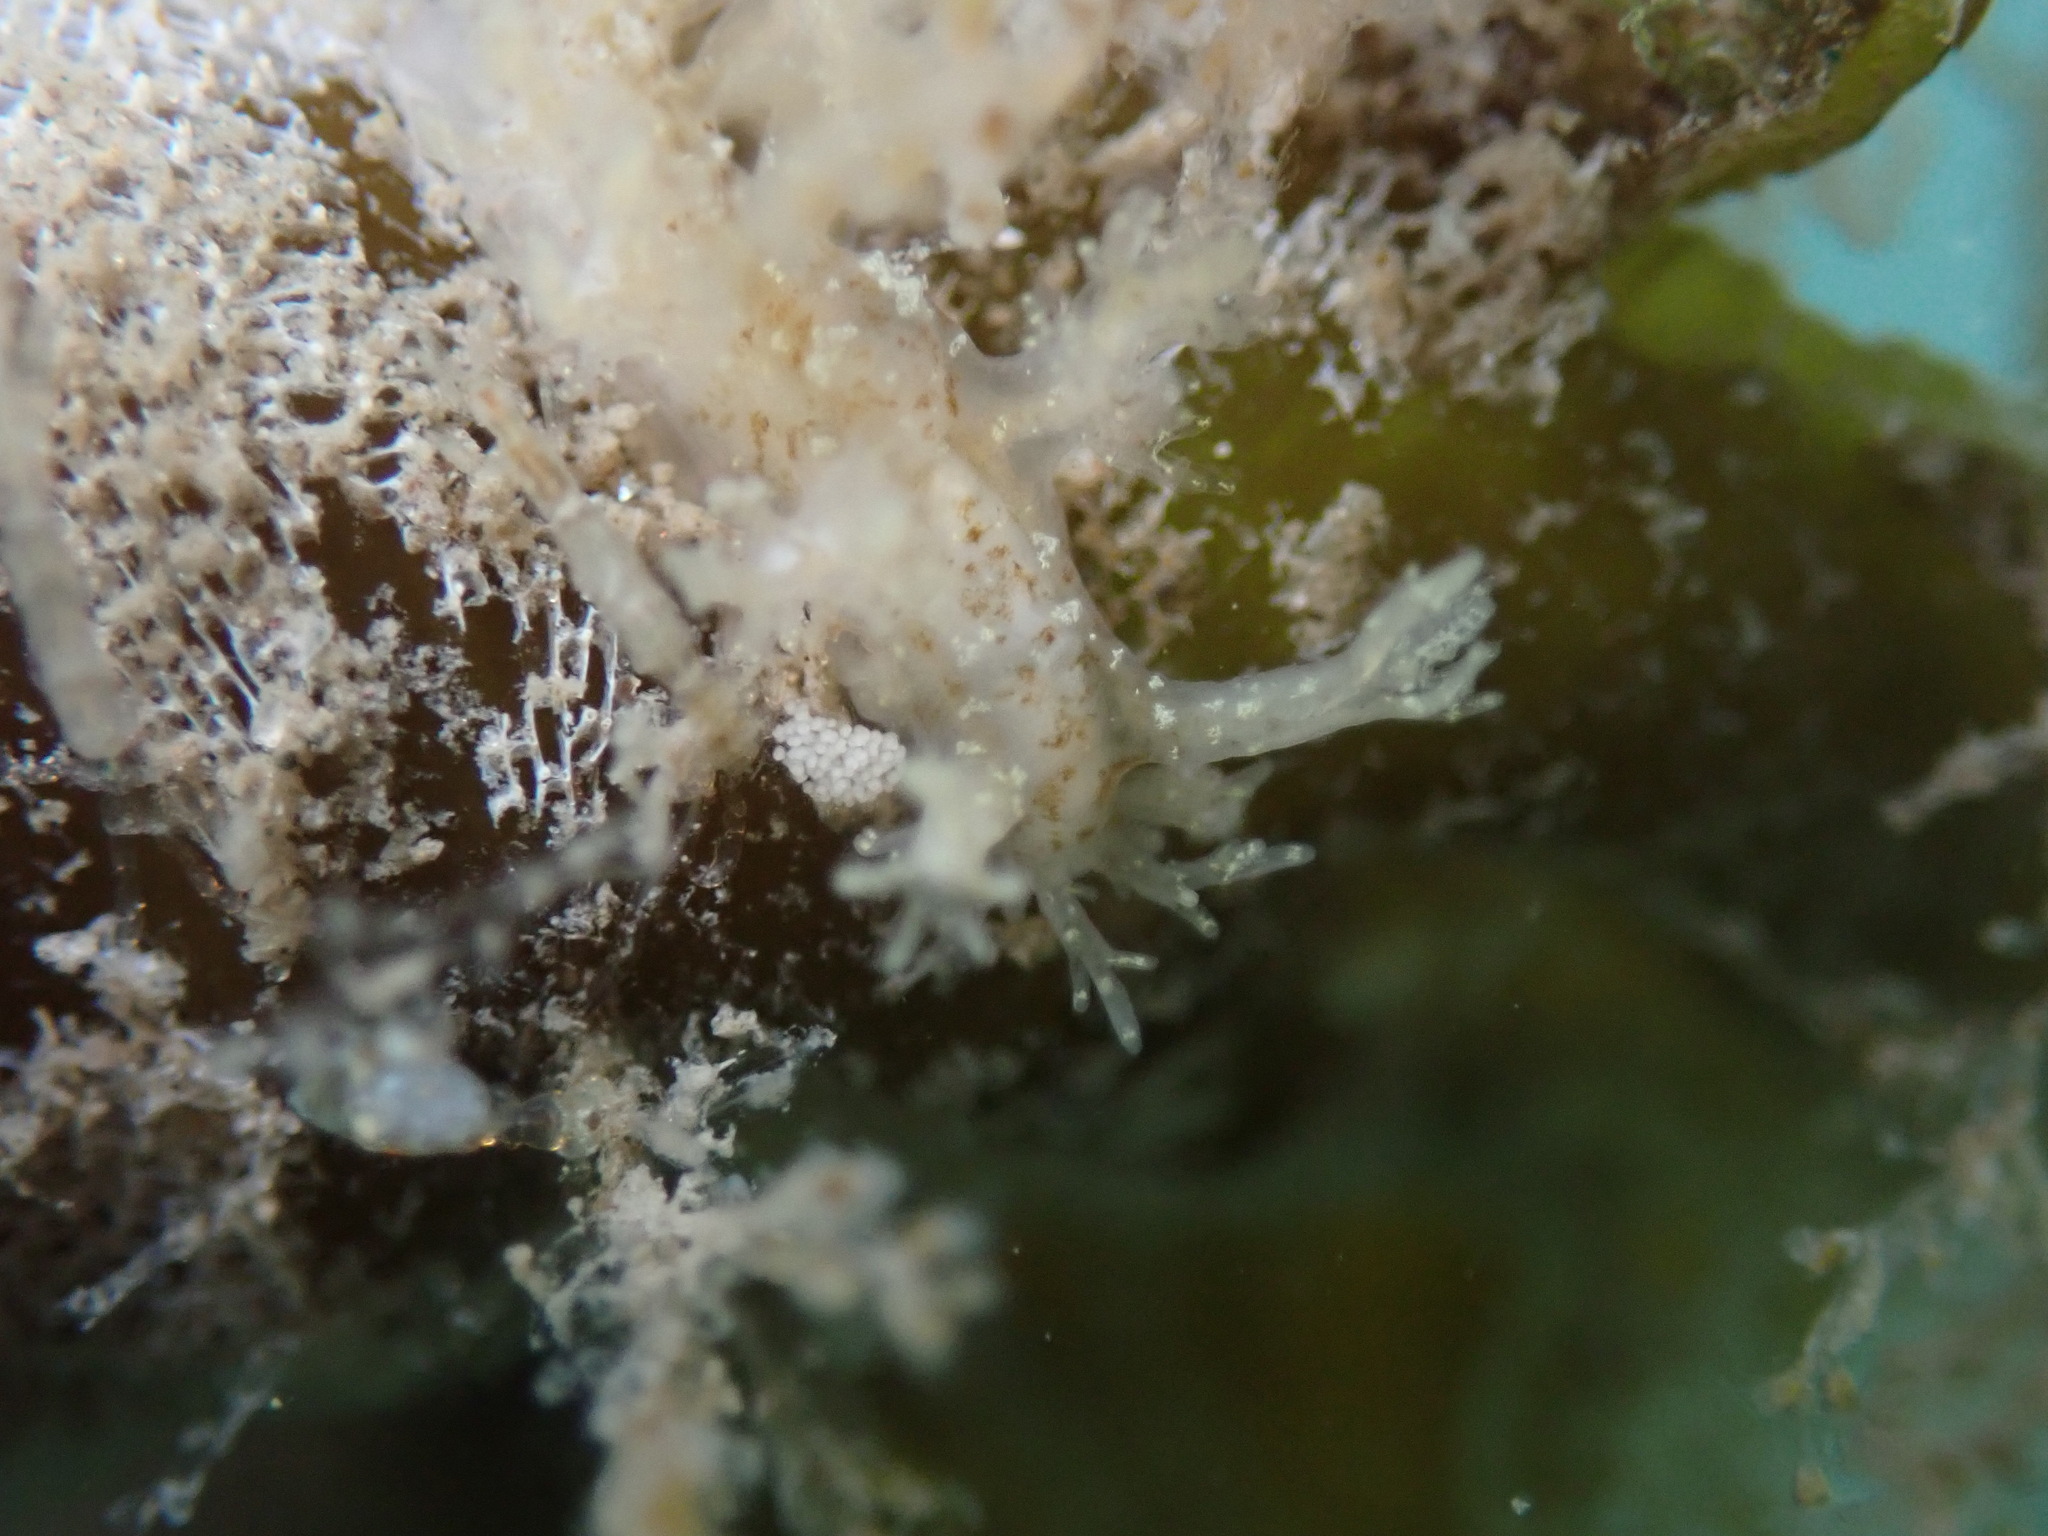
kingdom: Animalia
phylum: Mollusca
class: Gastropoda
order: Nudibranchia
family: Dendronotidae
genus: Dendronotus
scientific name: Dendronotus venustus
